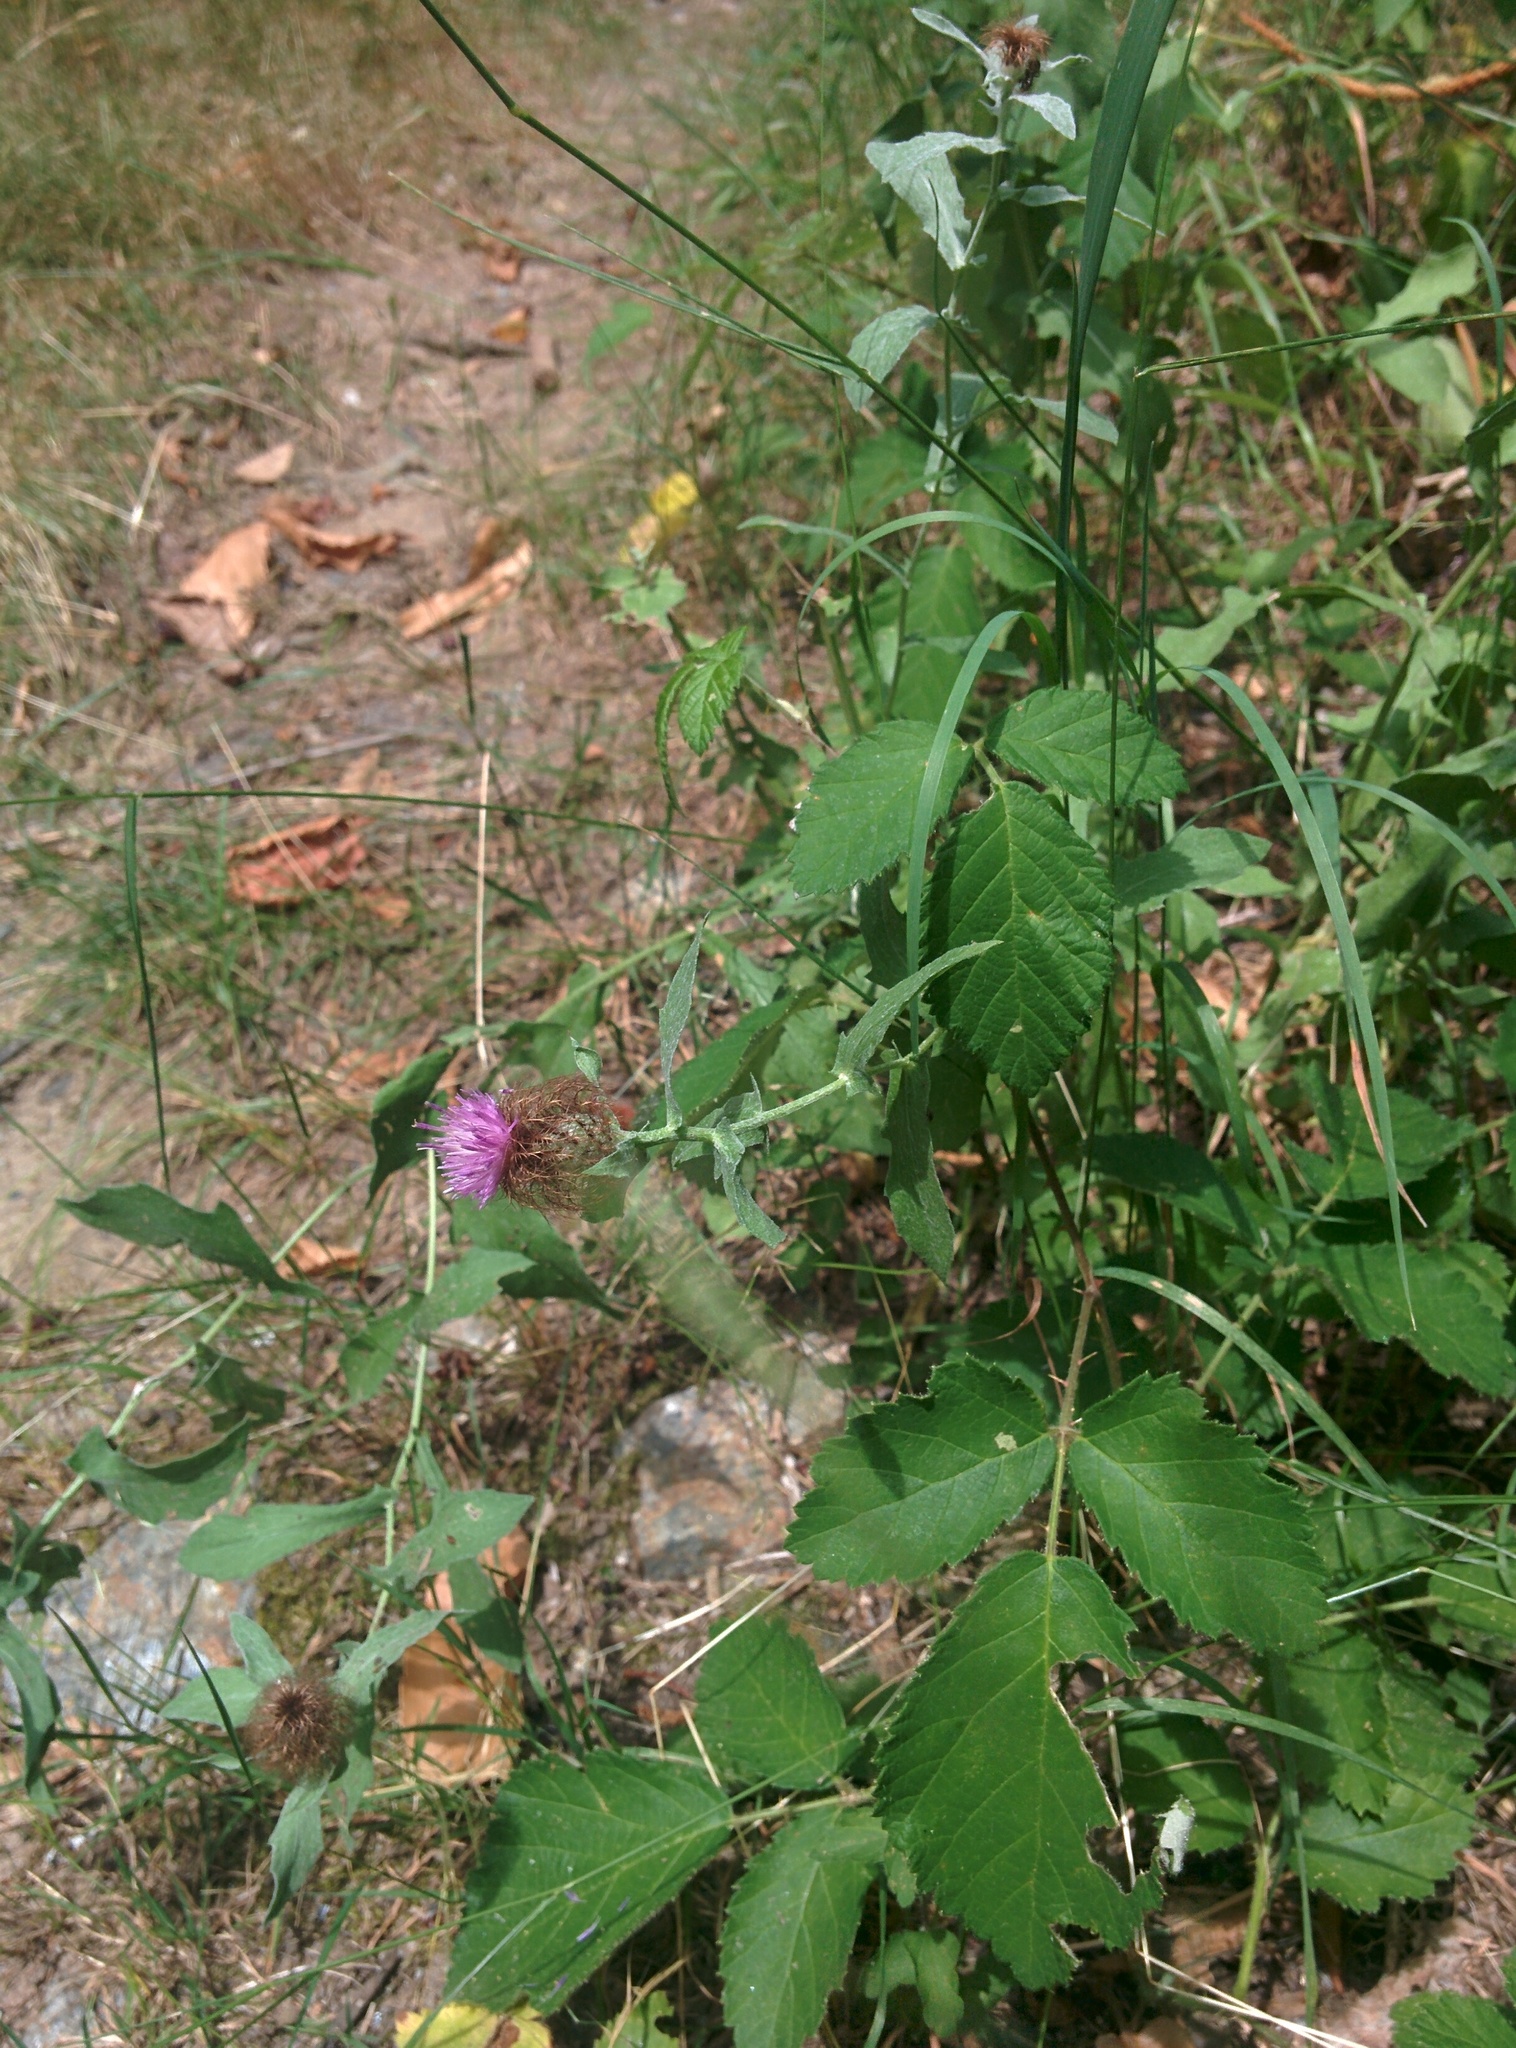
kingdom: Plantae
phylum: Tracheophyta
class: Magnoliopsida
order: Asterales
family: Asteraceae
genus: Centaurea
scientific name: Centaurea pectinata
